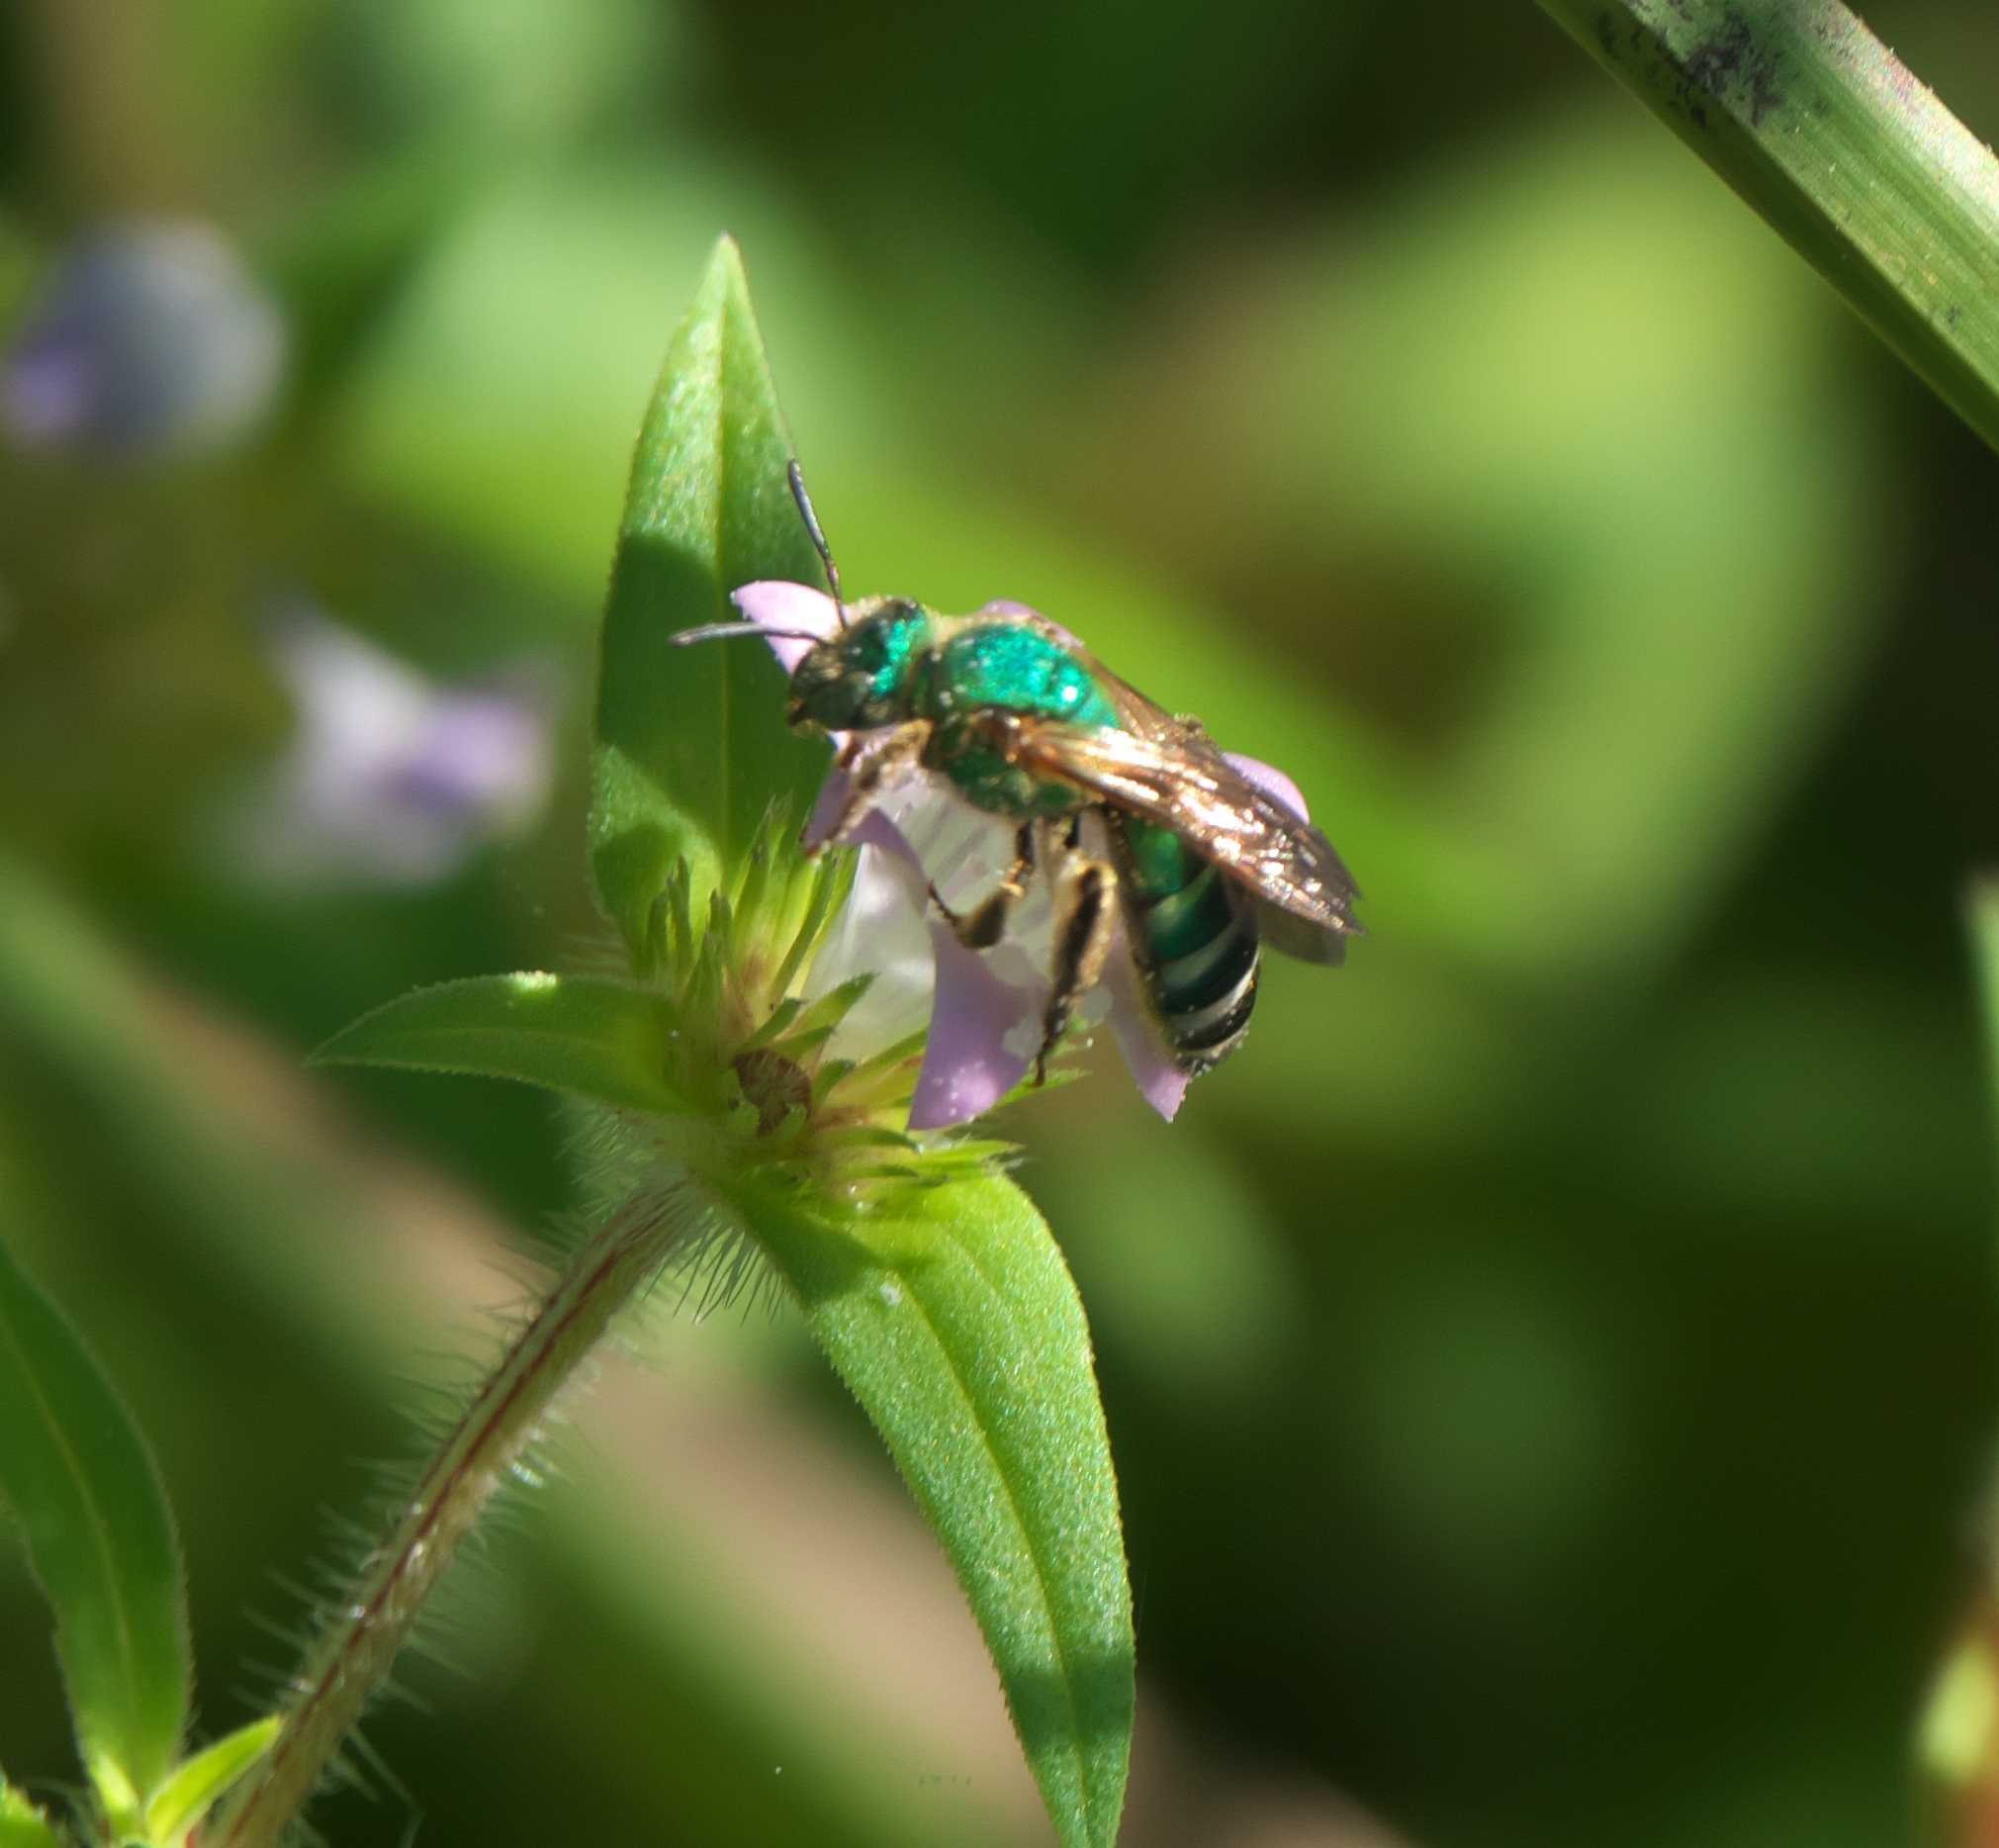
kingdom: Animalia
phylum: Arthropoda
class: Insecta
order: Hymenoptera
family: Halictidae
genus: Agapostemon
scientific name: Agapostemon splendens
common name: Brown-winged striped sweat bee
